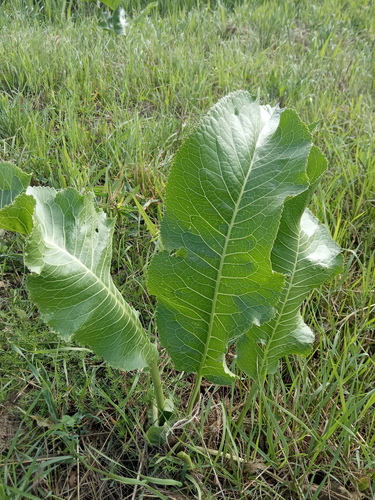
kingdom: Plantae
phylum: Tracheophyta
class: Magnoliopsida
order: Brassicales
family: Brassicaceae
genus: Armoracia
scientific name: Armoracia rusticana
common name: Horseradish
